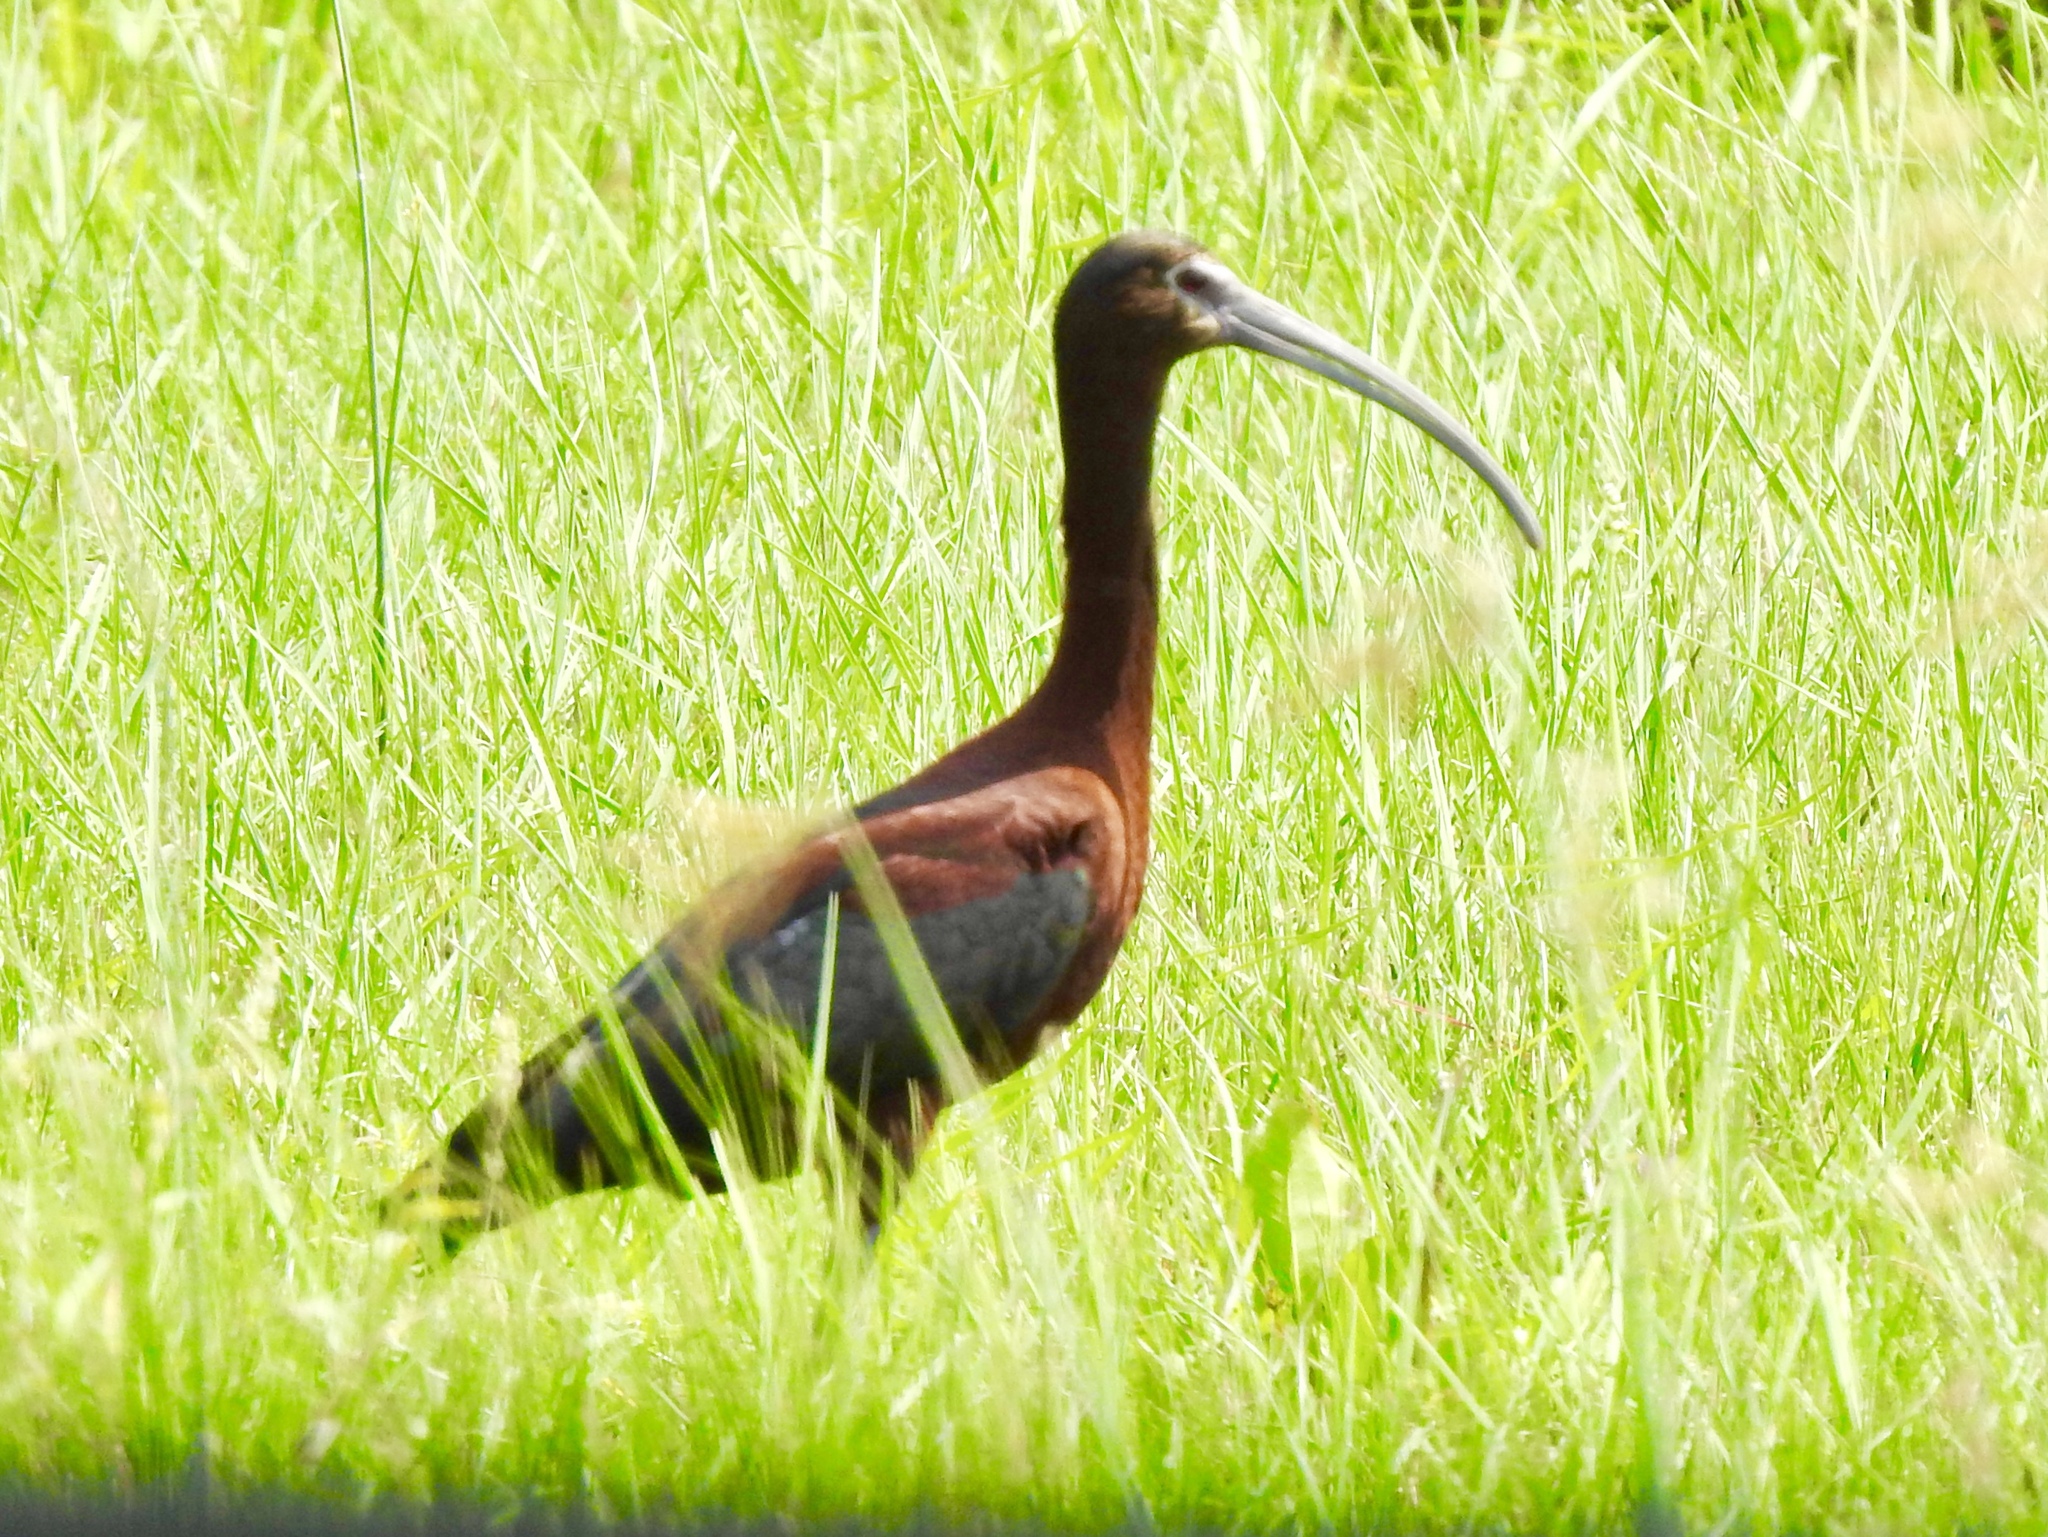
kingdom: Animalia
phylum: Chordata
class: Aves
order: Pelecaniformes
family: Threskiornithidae
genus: Plegadis
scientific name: Plegadis chihi
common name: White-faced ibis
